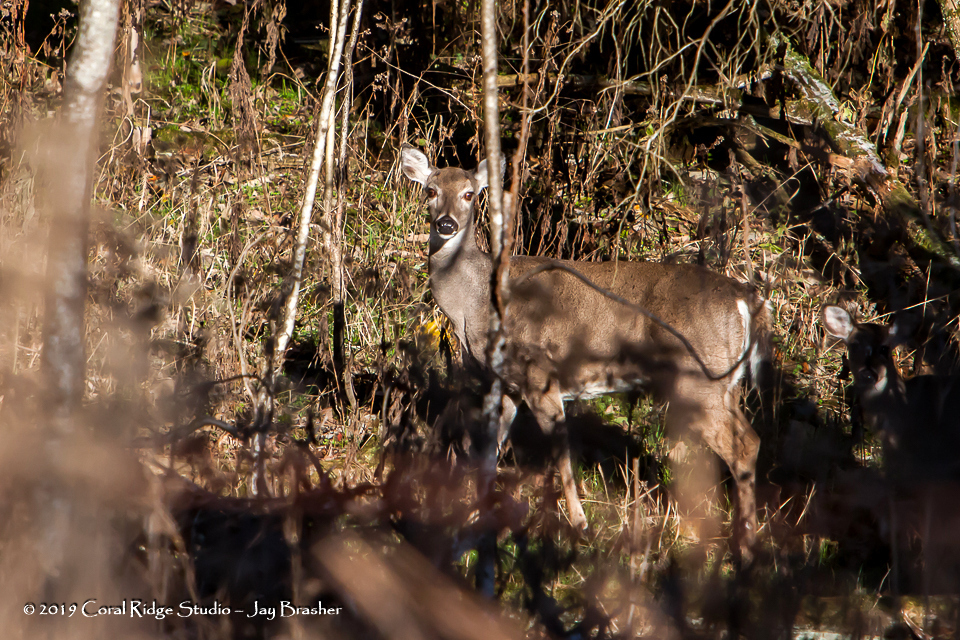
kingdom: Animalia
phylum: Chordata
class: Mammalia
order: Artiodactyla
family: Cervidae
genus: Odocoileus
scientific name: Odocoileus virginianus
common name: White-tailed deer
